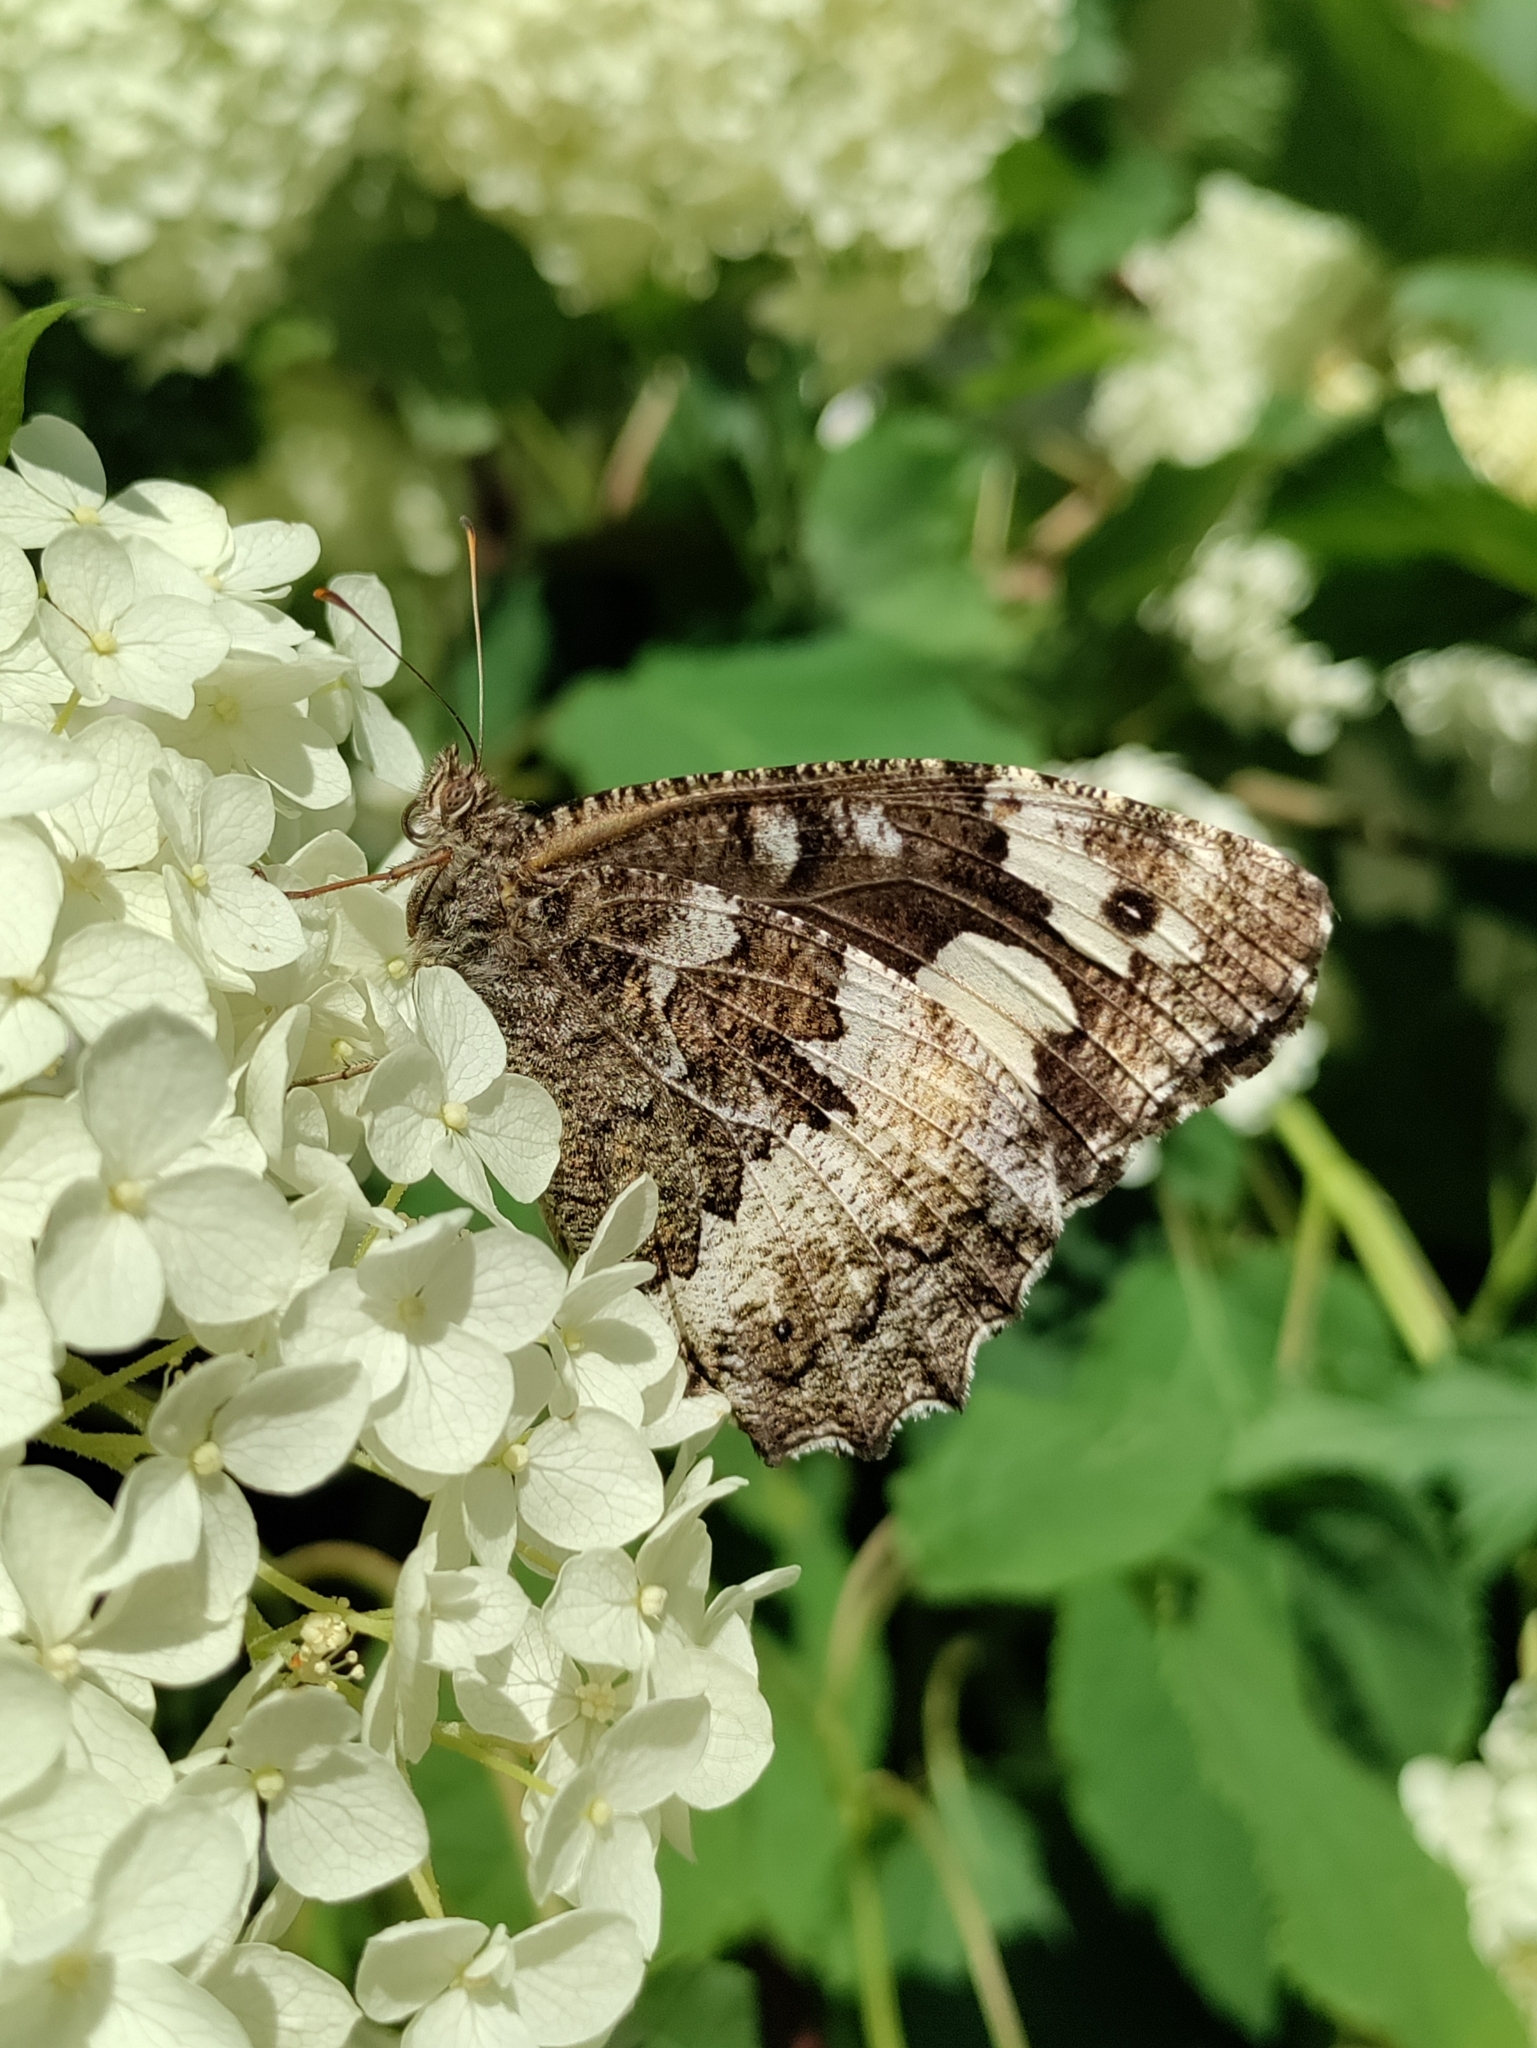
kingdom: Animalia
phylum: Arthropoda
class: Insecta
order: Lepidoptera
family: Lycaenidae
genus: Loweia
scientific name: Loweia tityrus
